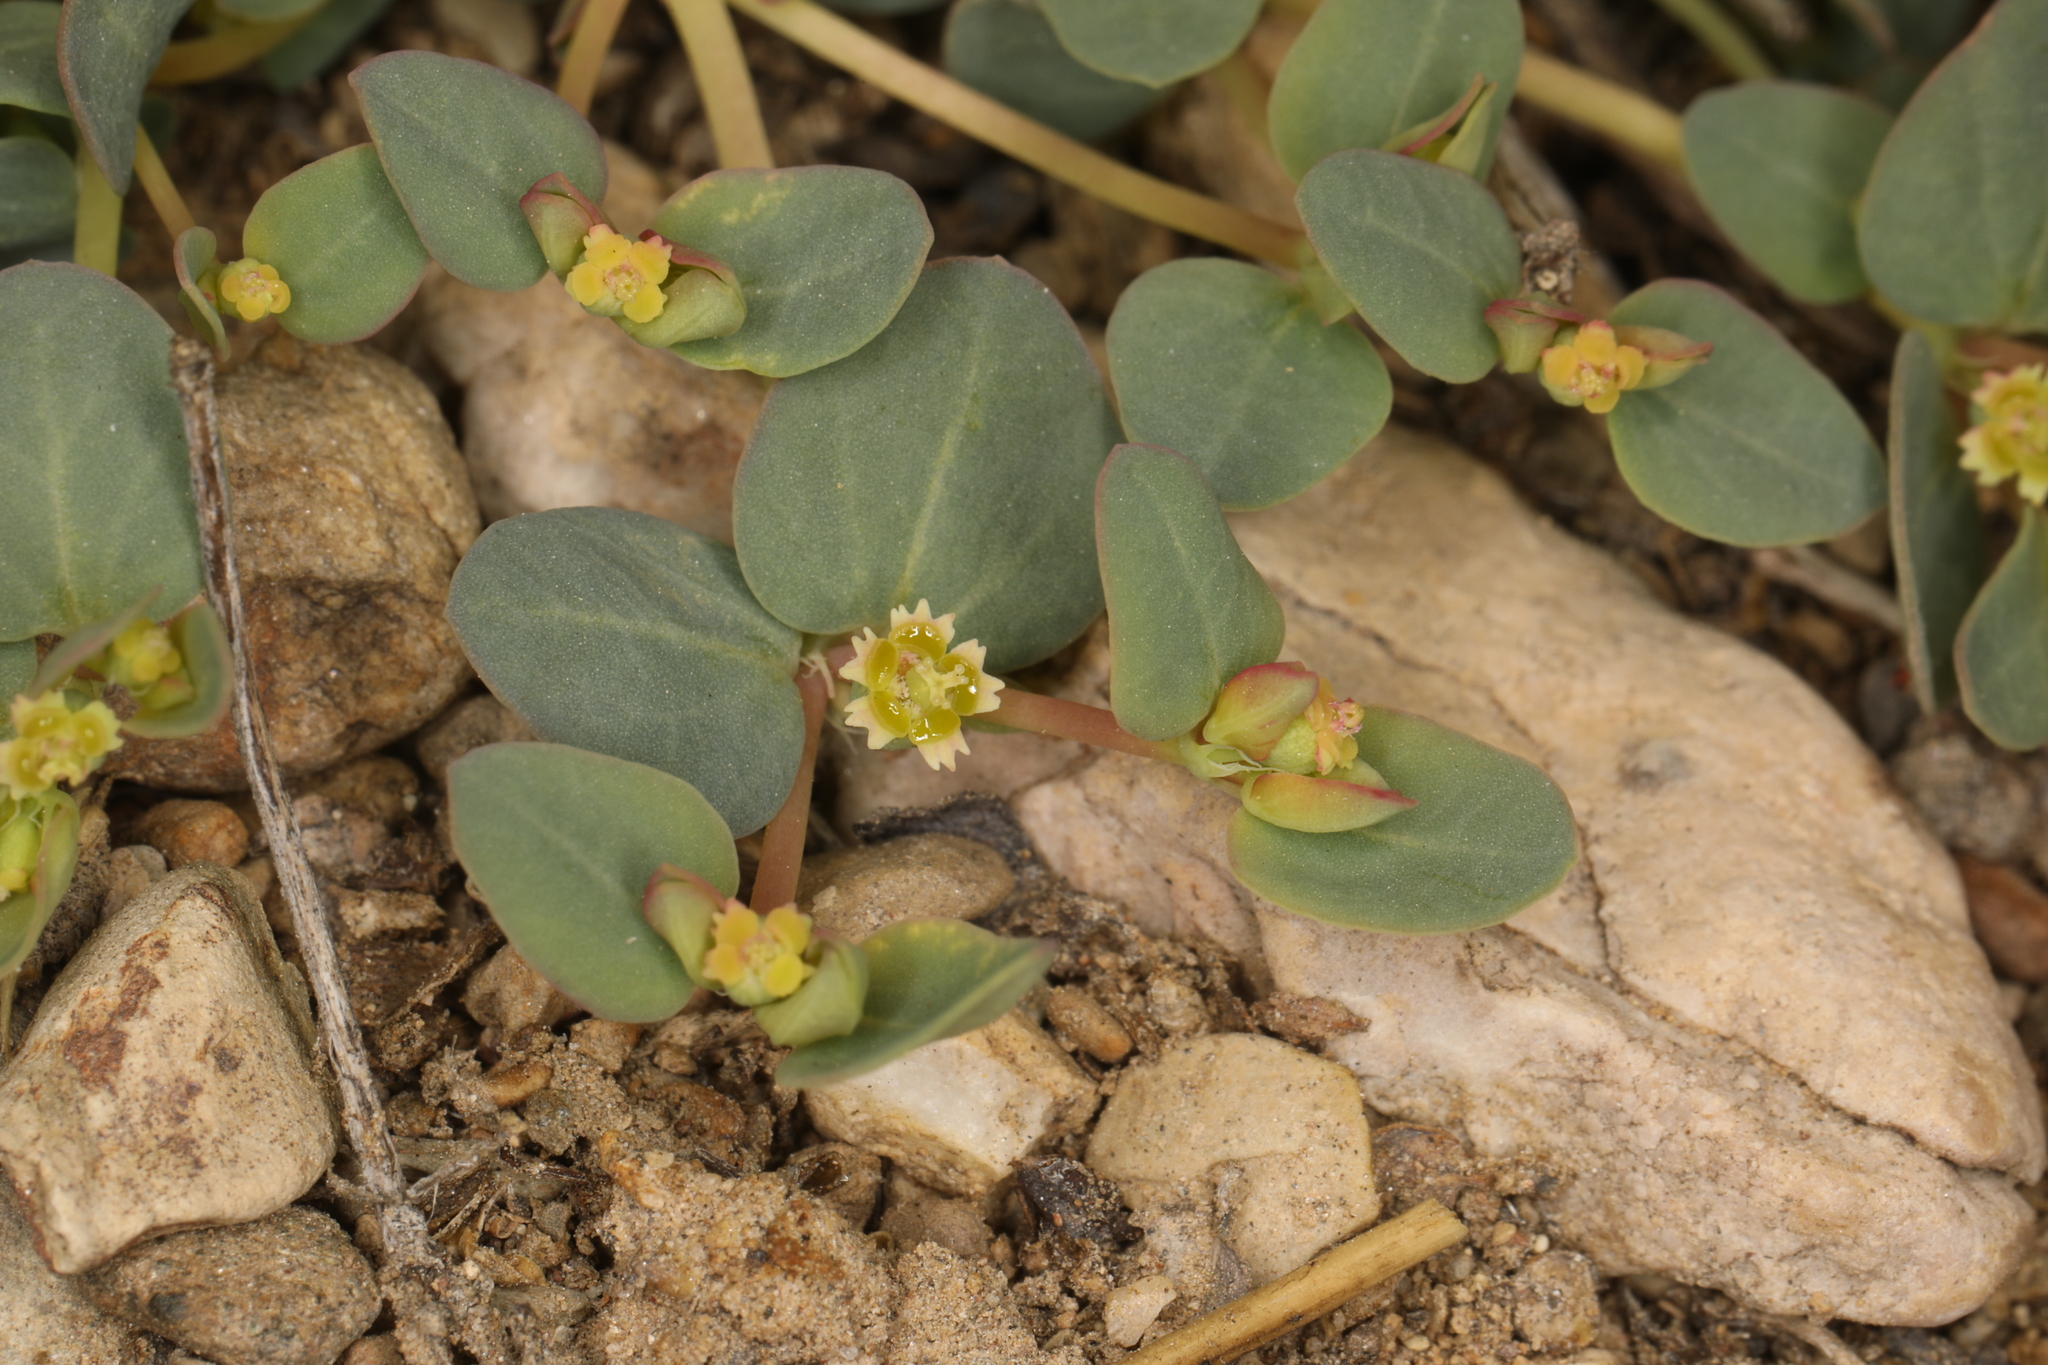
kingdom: Plantae
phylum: Tracheophyta
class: Magnoliopsida
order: Malpighiales
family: Euphorbiaceae
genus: Euphorbia
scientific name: Euphorbia fendleri
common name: Fendler's euphorbia
